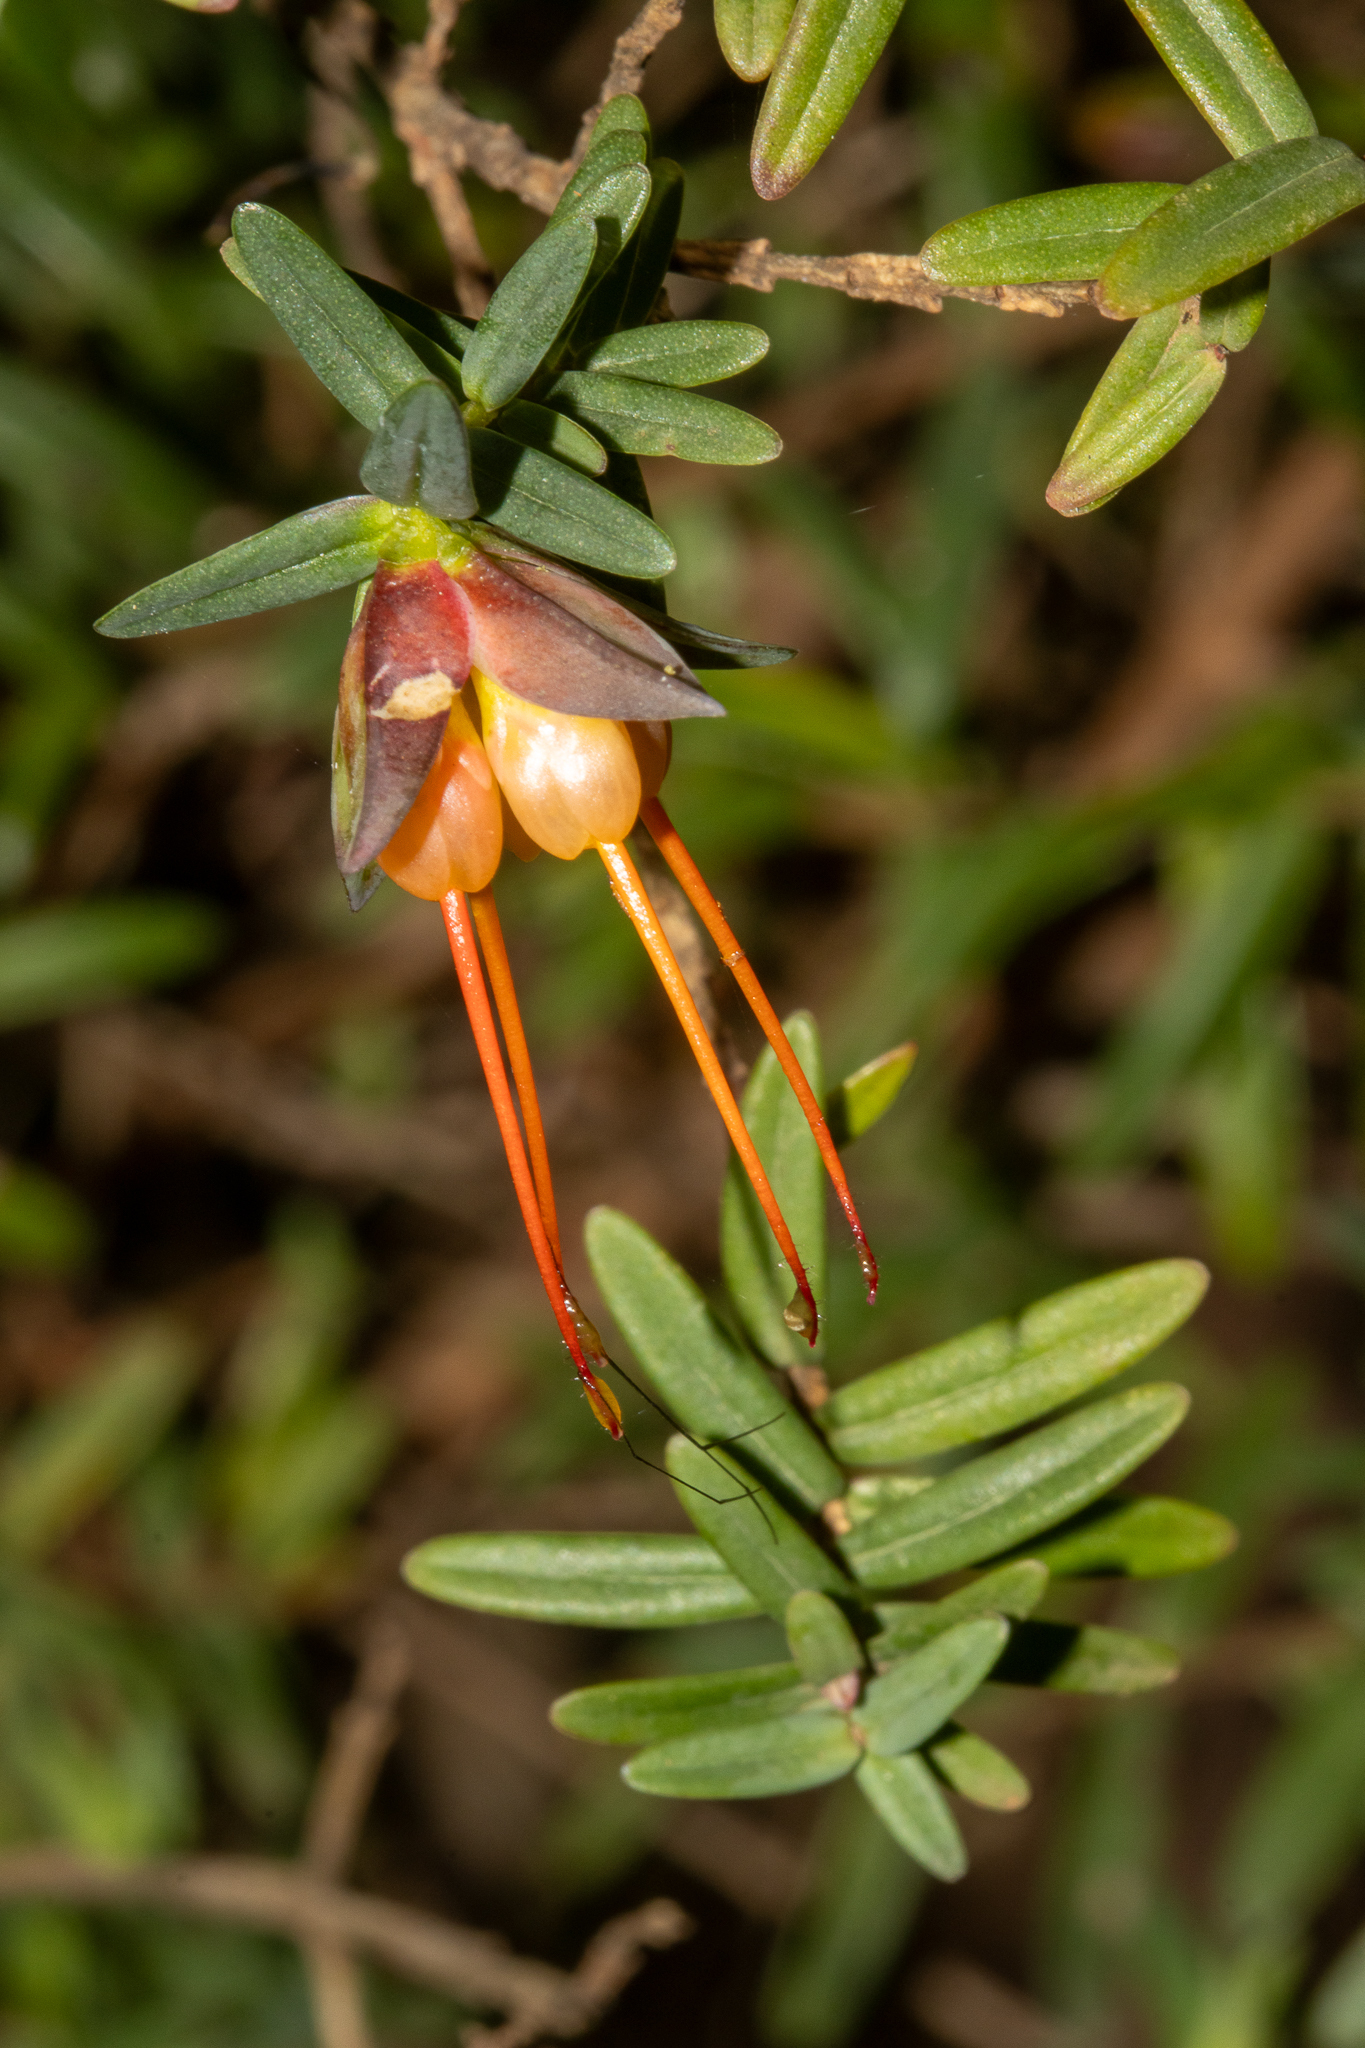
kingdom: Plantae
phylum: Tracheophyta
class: Magnoliopsida
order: Myrtales
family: Myrtaceae
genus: Darwinia
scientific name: Darwinia citriodora
